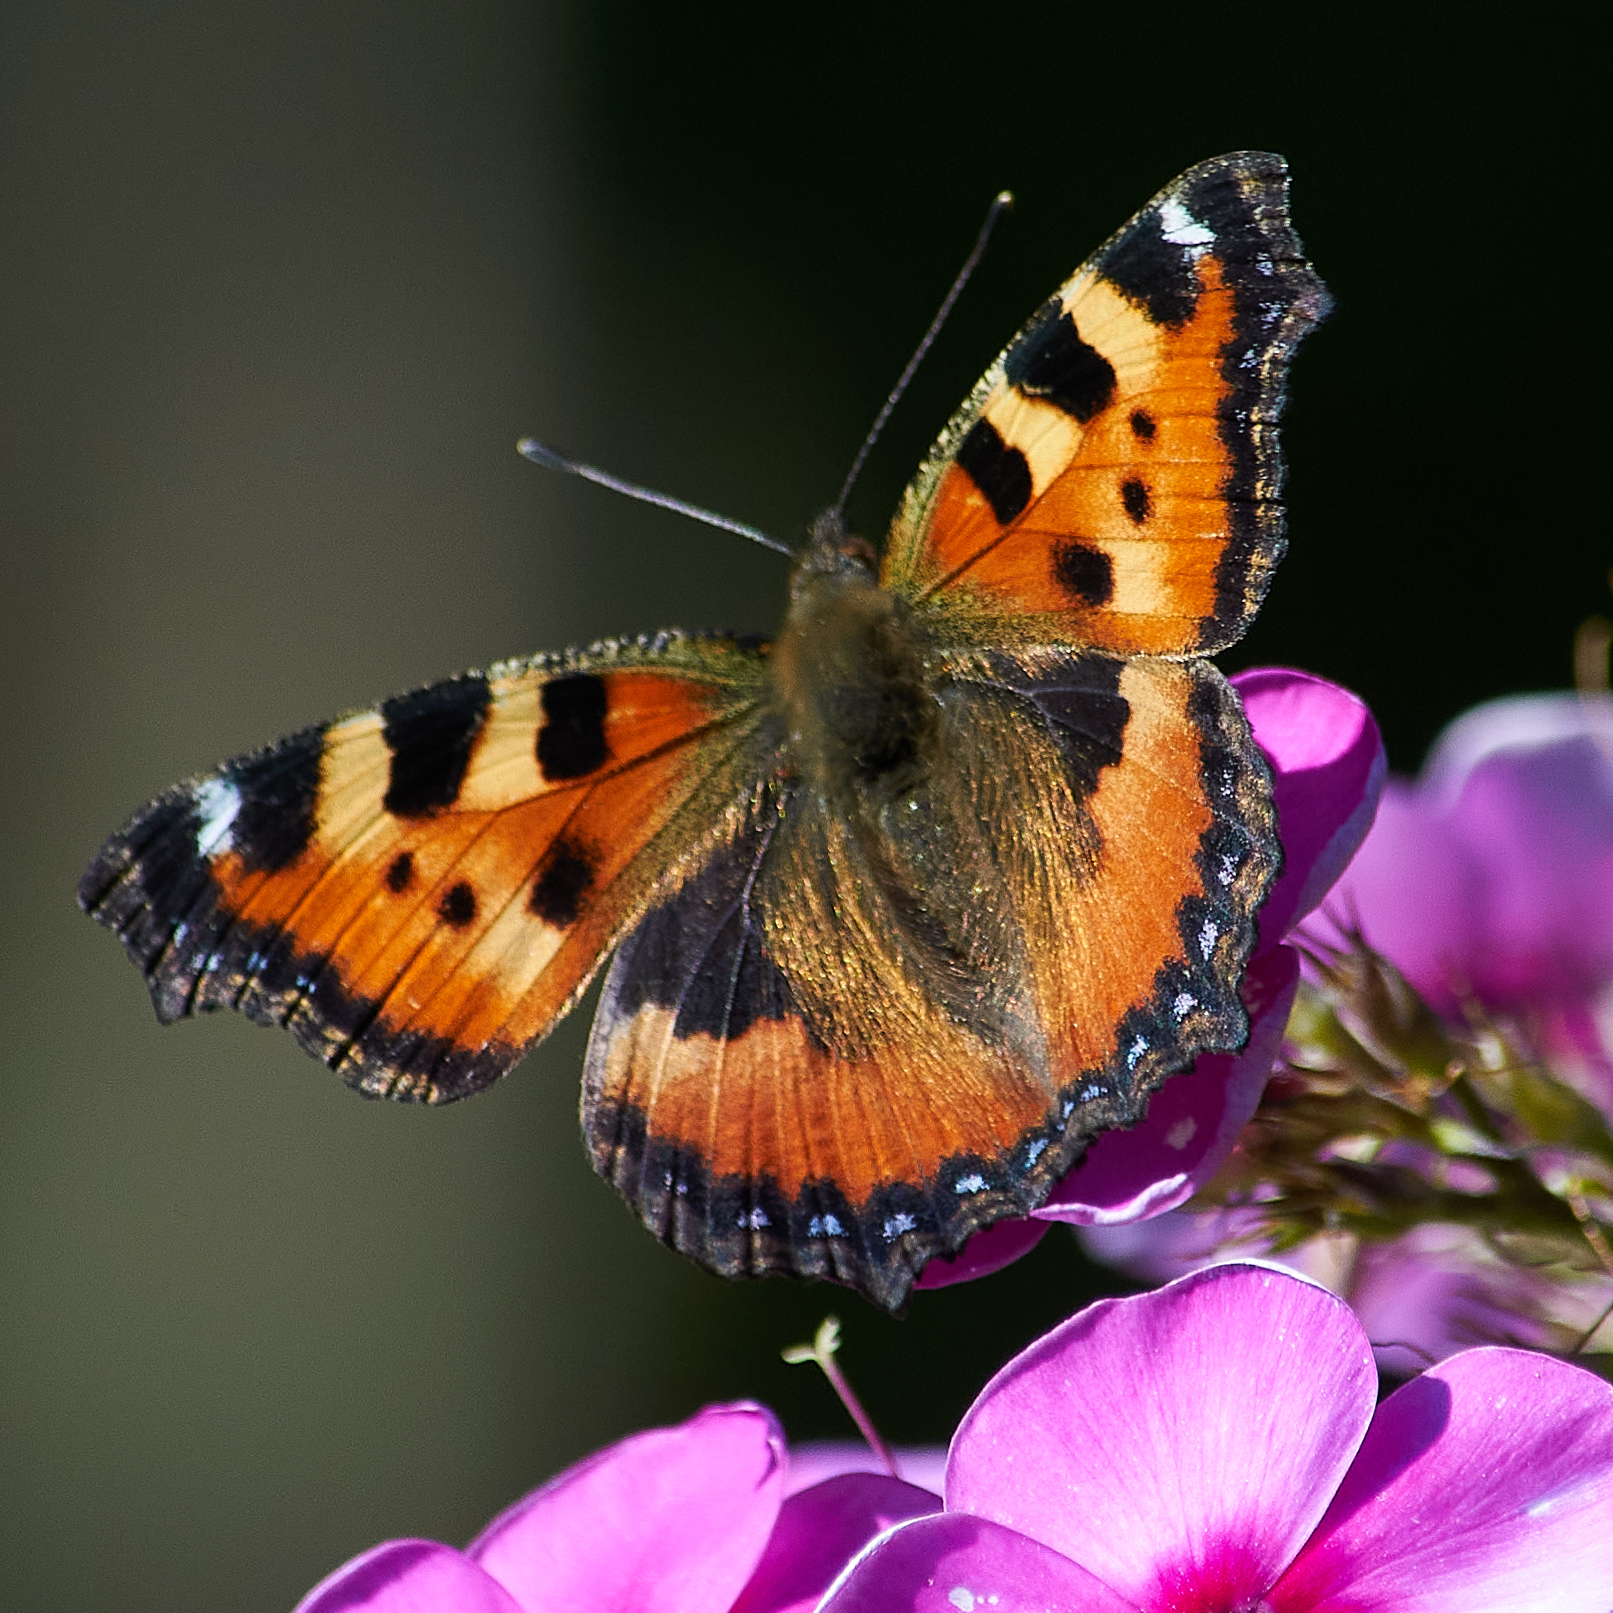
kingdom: Animalia
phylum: Arthropoda
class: Insecta
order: Lepidoptera
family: Nymphalidae
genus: Aglais
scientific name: Aglais urticae
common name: Small tortoiseshell
